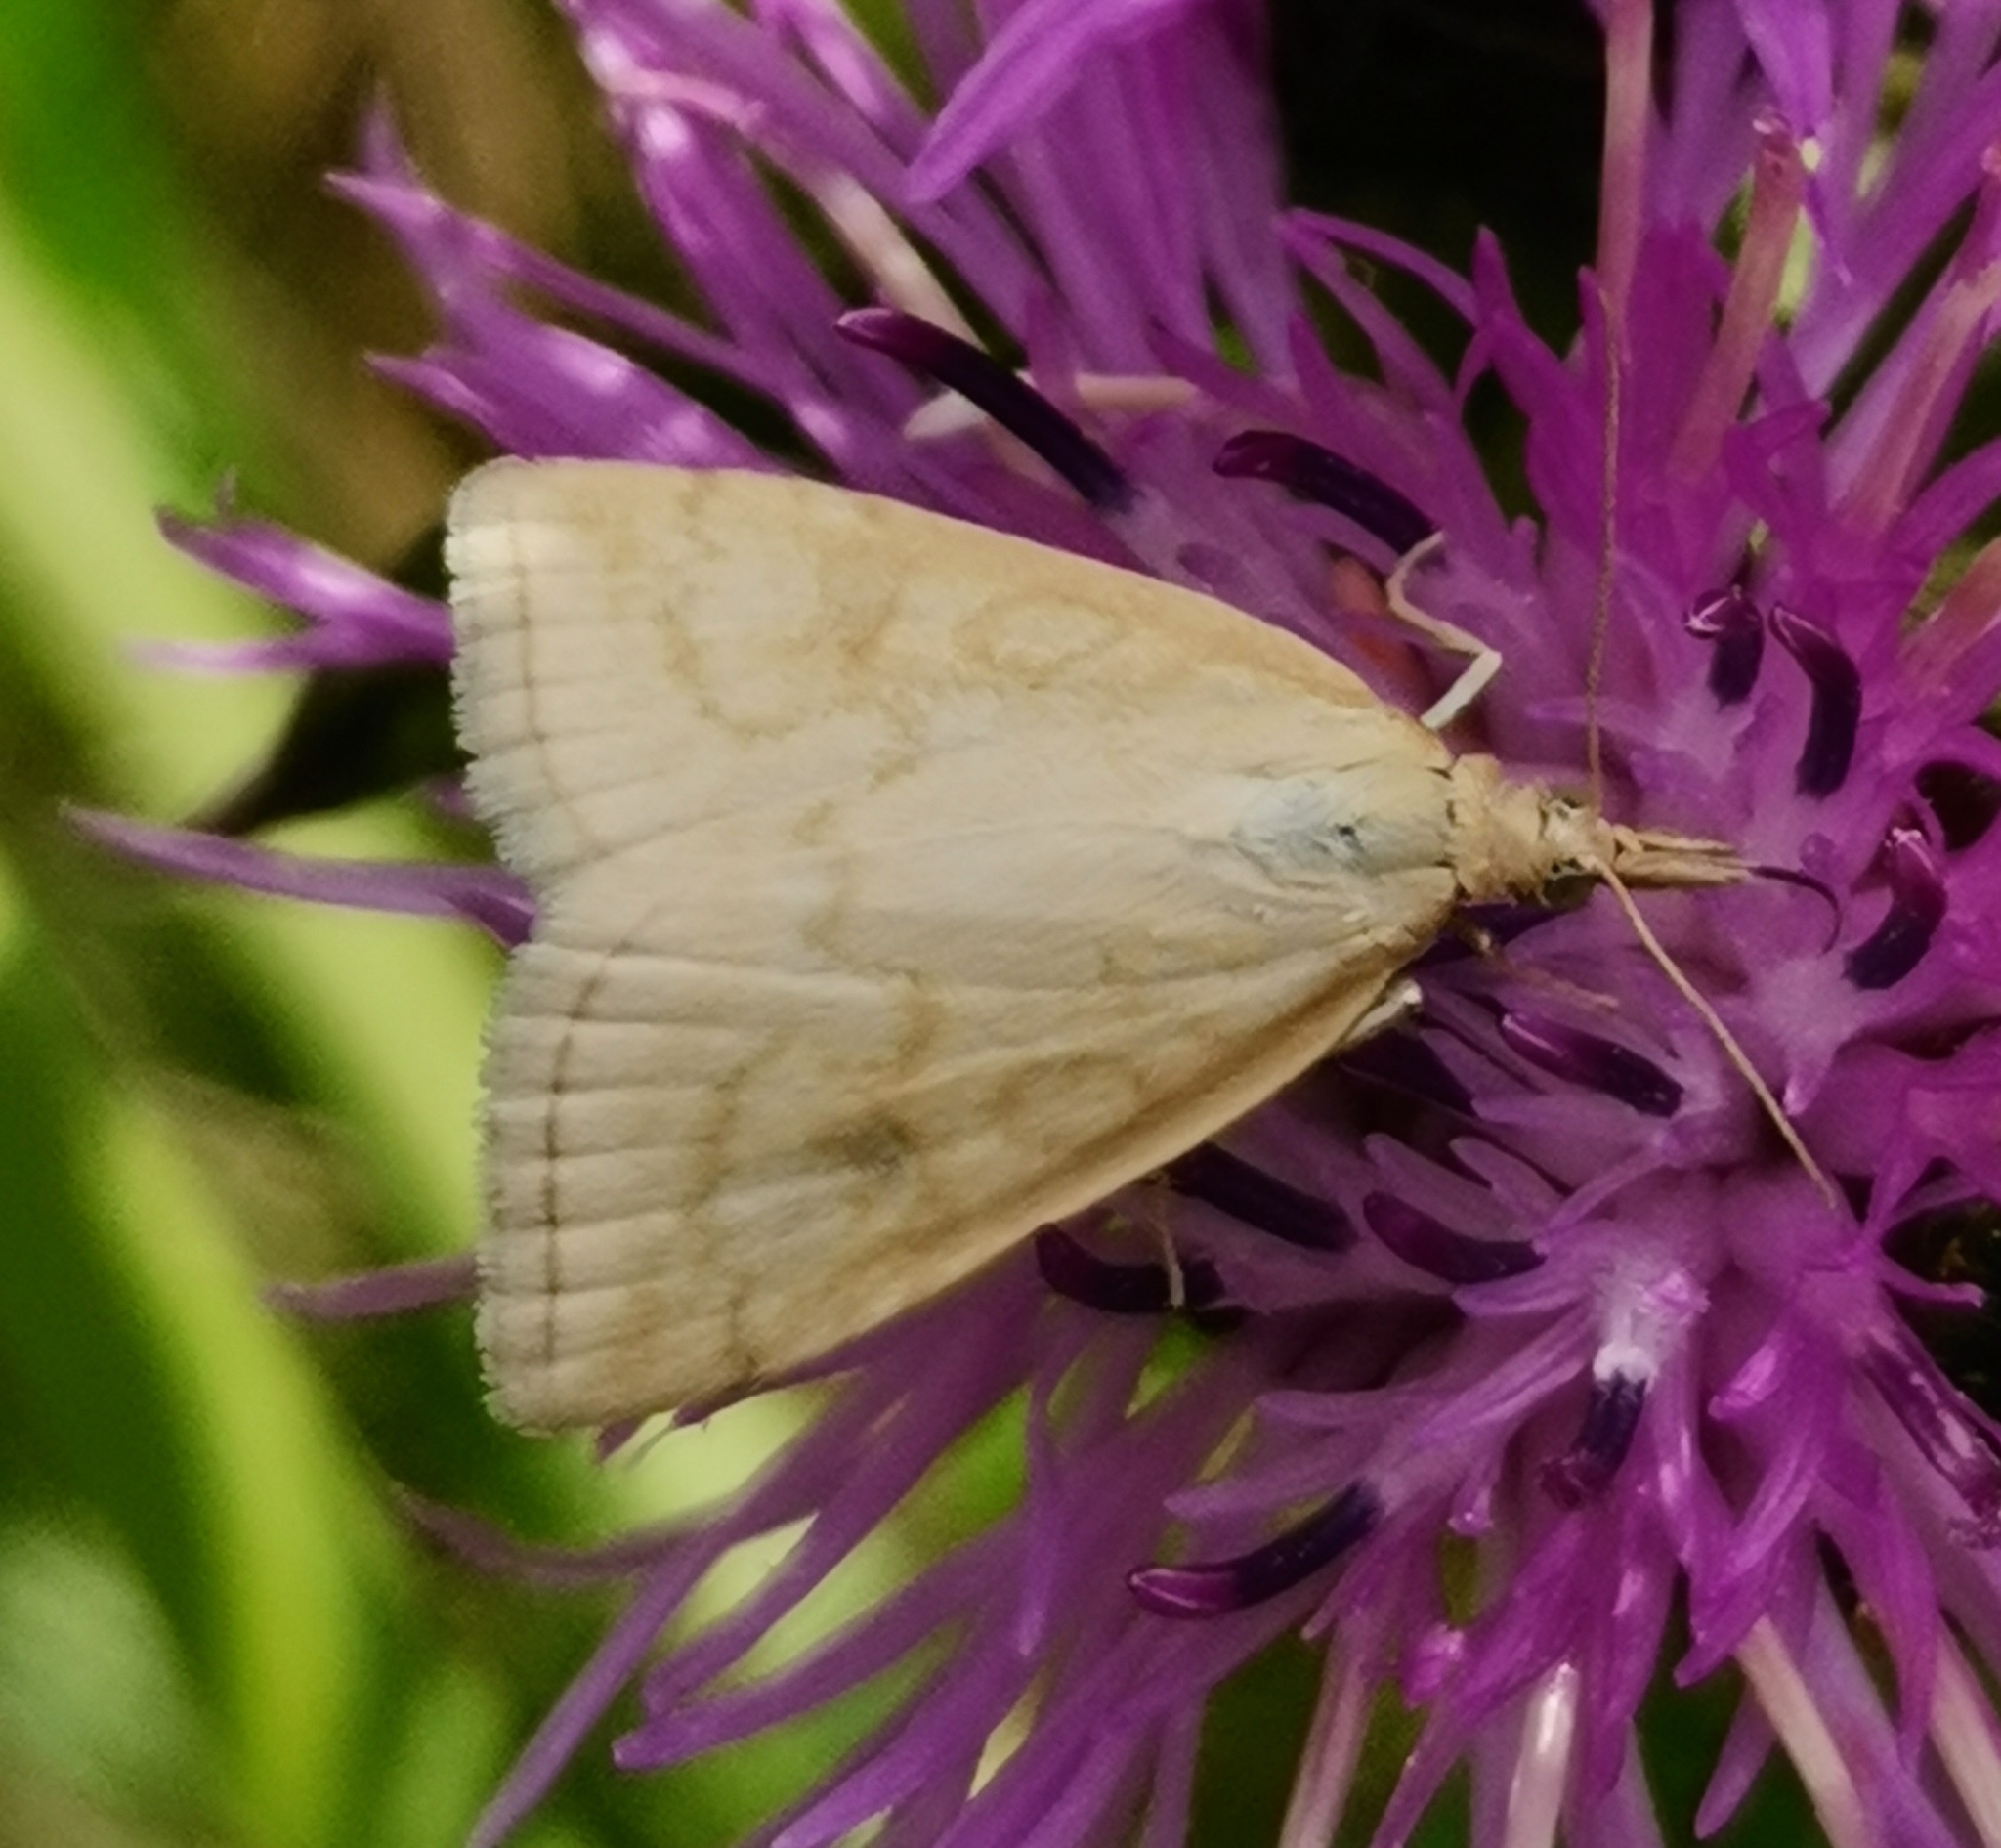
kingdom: Animalia
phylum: Arthropoda
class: Insecta
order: Lepidoptera
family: Crambidae
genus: Udea
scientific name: Udea lutealis
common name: Pale straw pearl
